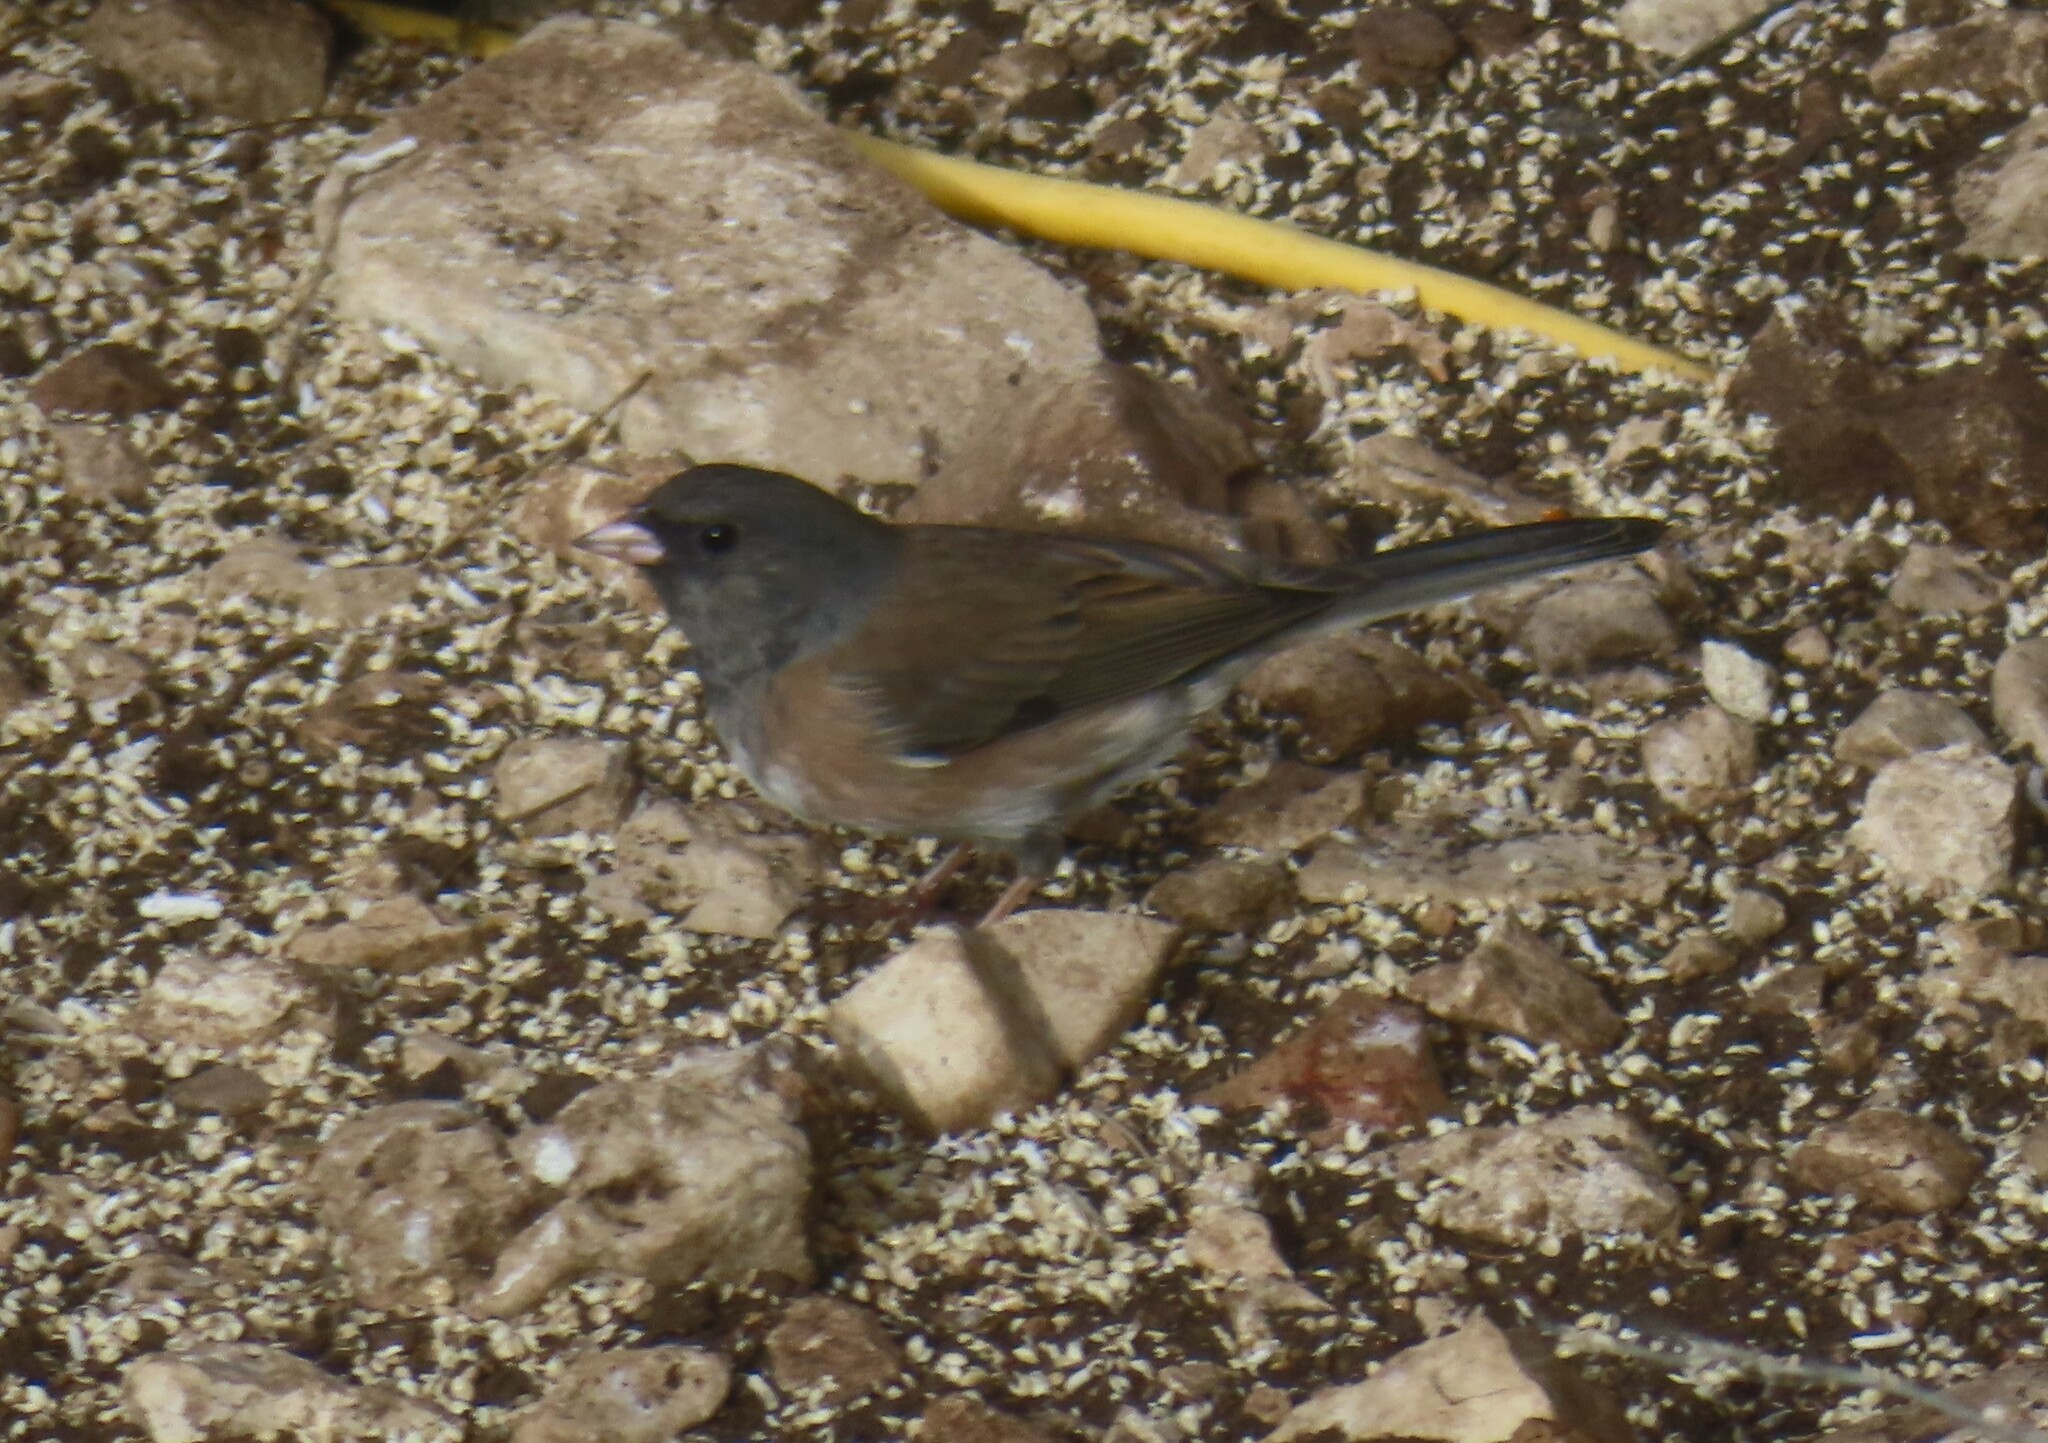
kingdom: Animalia
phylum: Chordata
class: Aves
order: Passeriformes
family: Passerellidae
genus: Junco
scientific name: Junco hyemalis
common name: Dark-eyed junco
